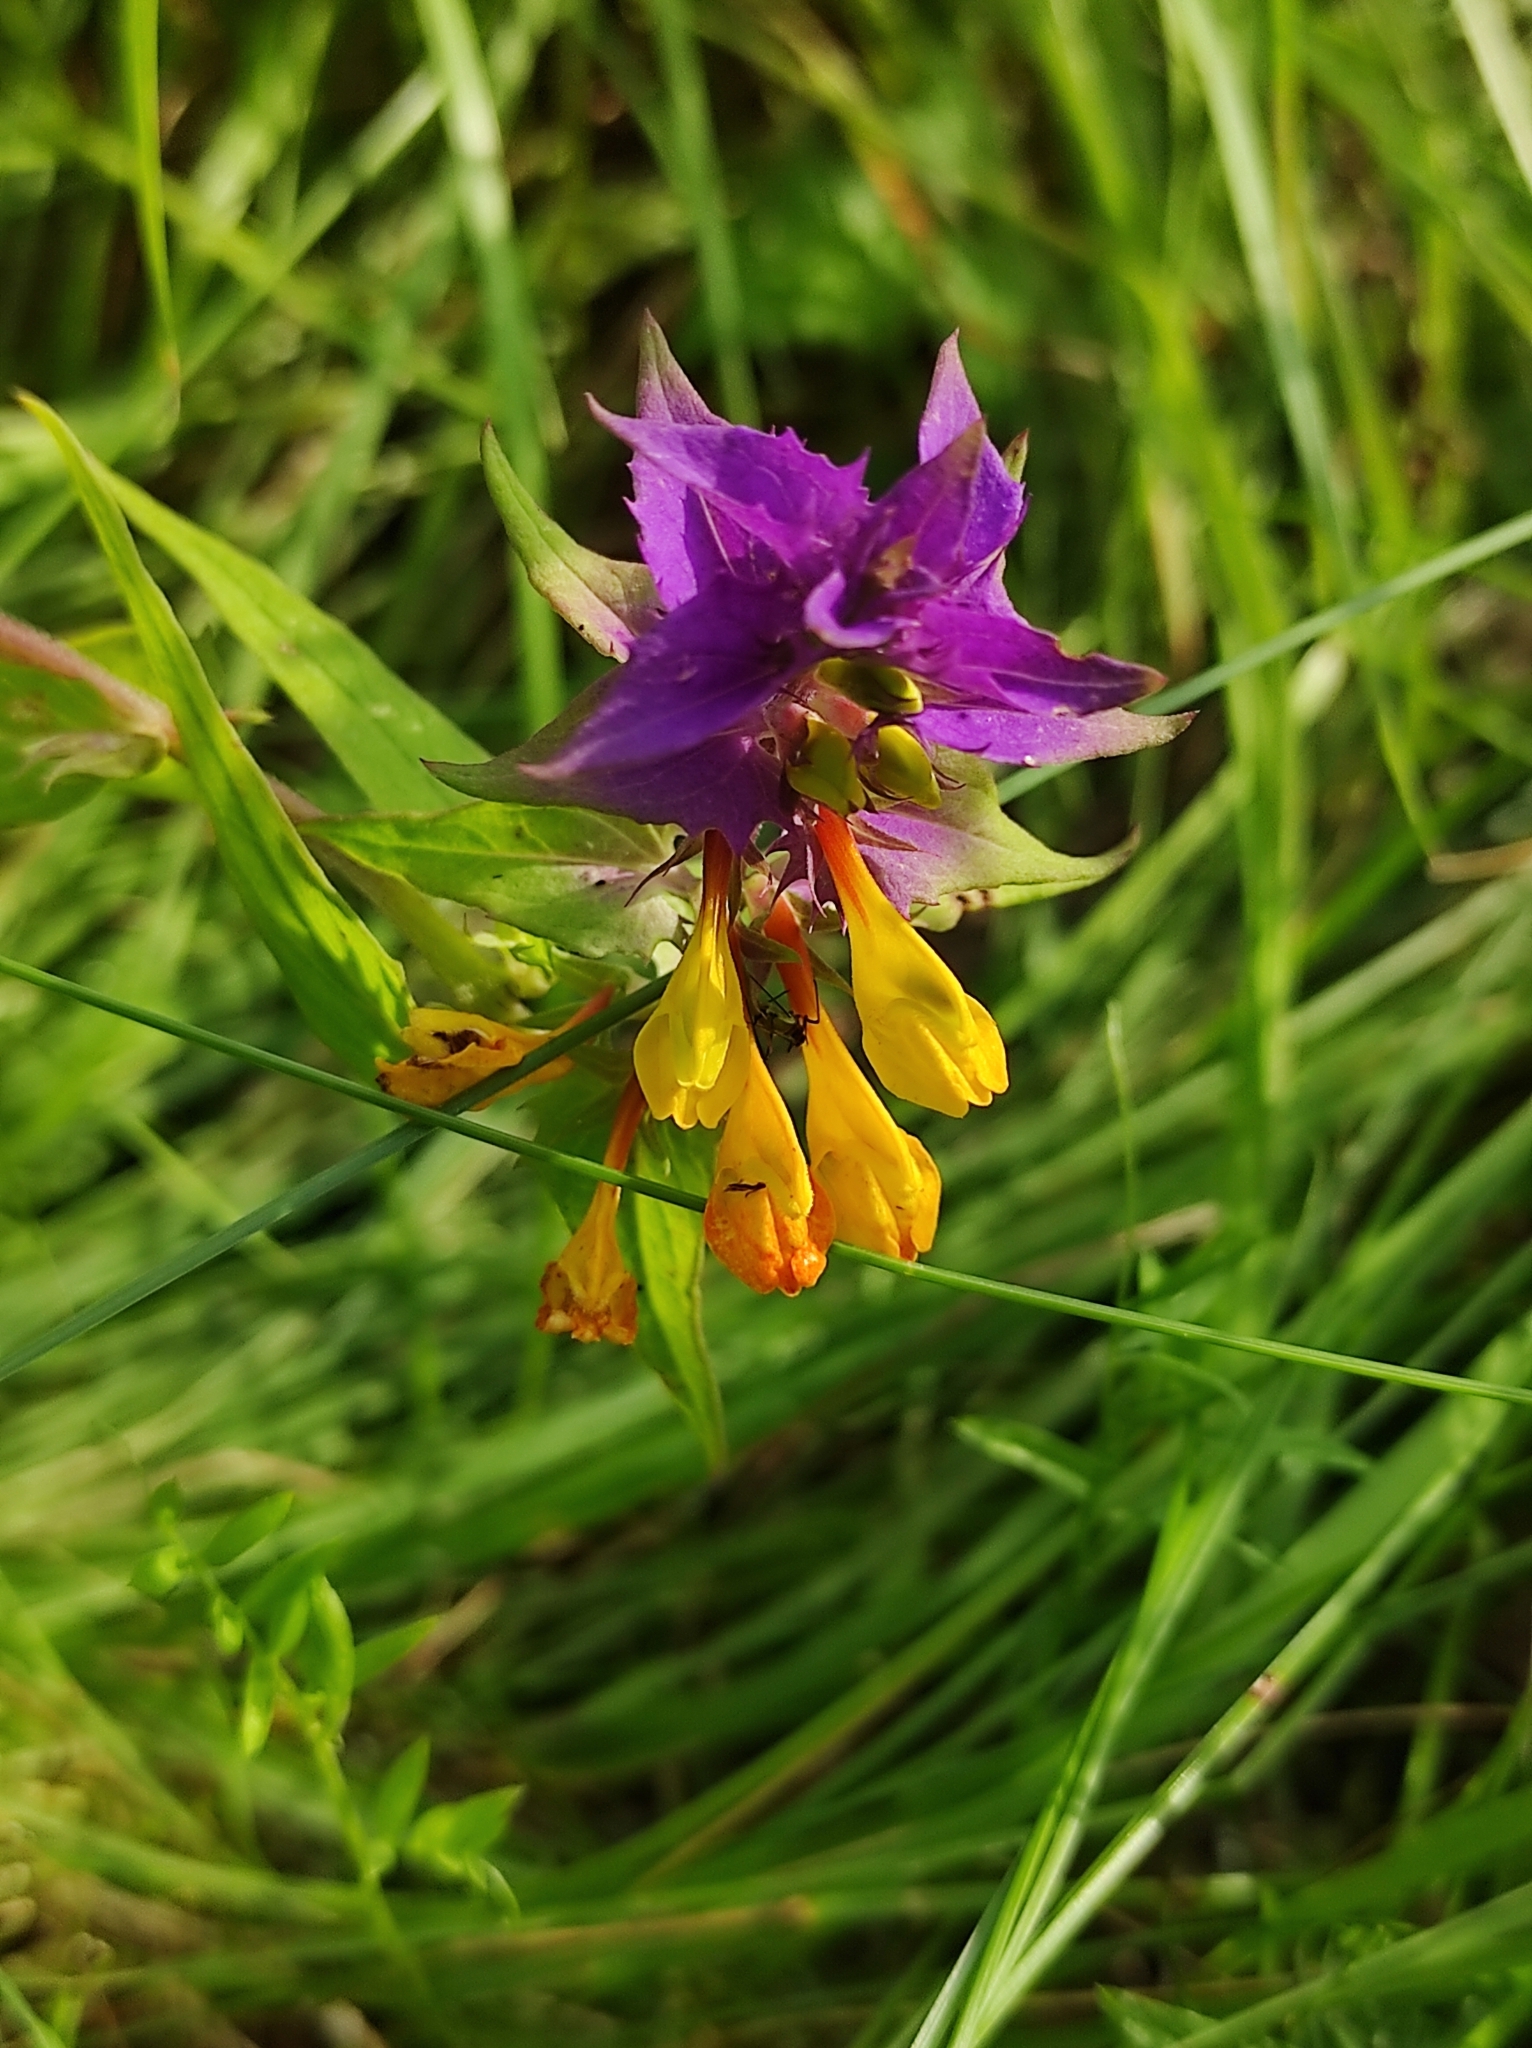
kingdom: Plantae
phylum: Tracheophyta
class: Magnoliopsida
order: Lamiales
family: Orobanchaceae
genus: Melampyrum
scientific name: Melampyrum nemorosum
